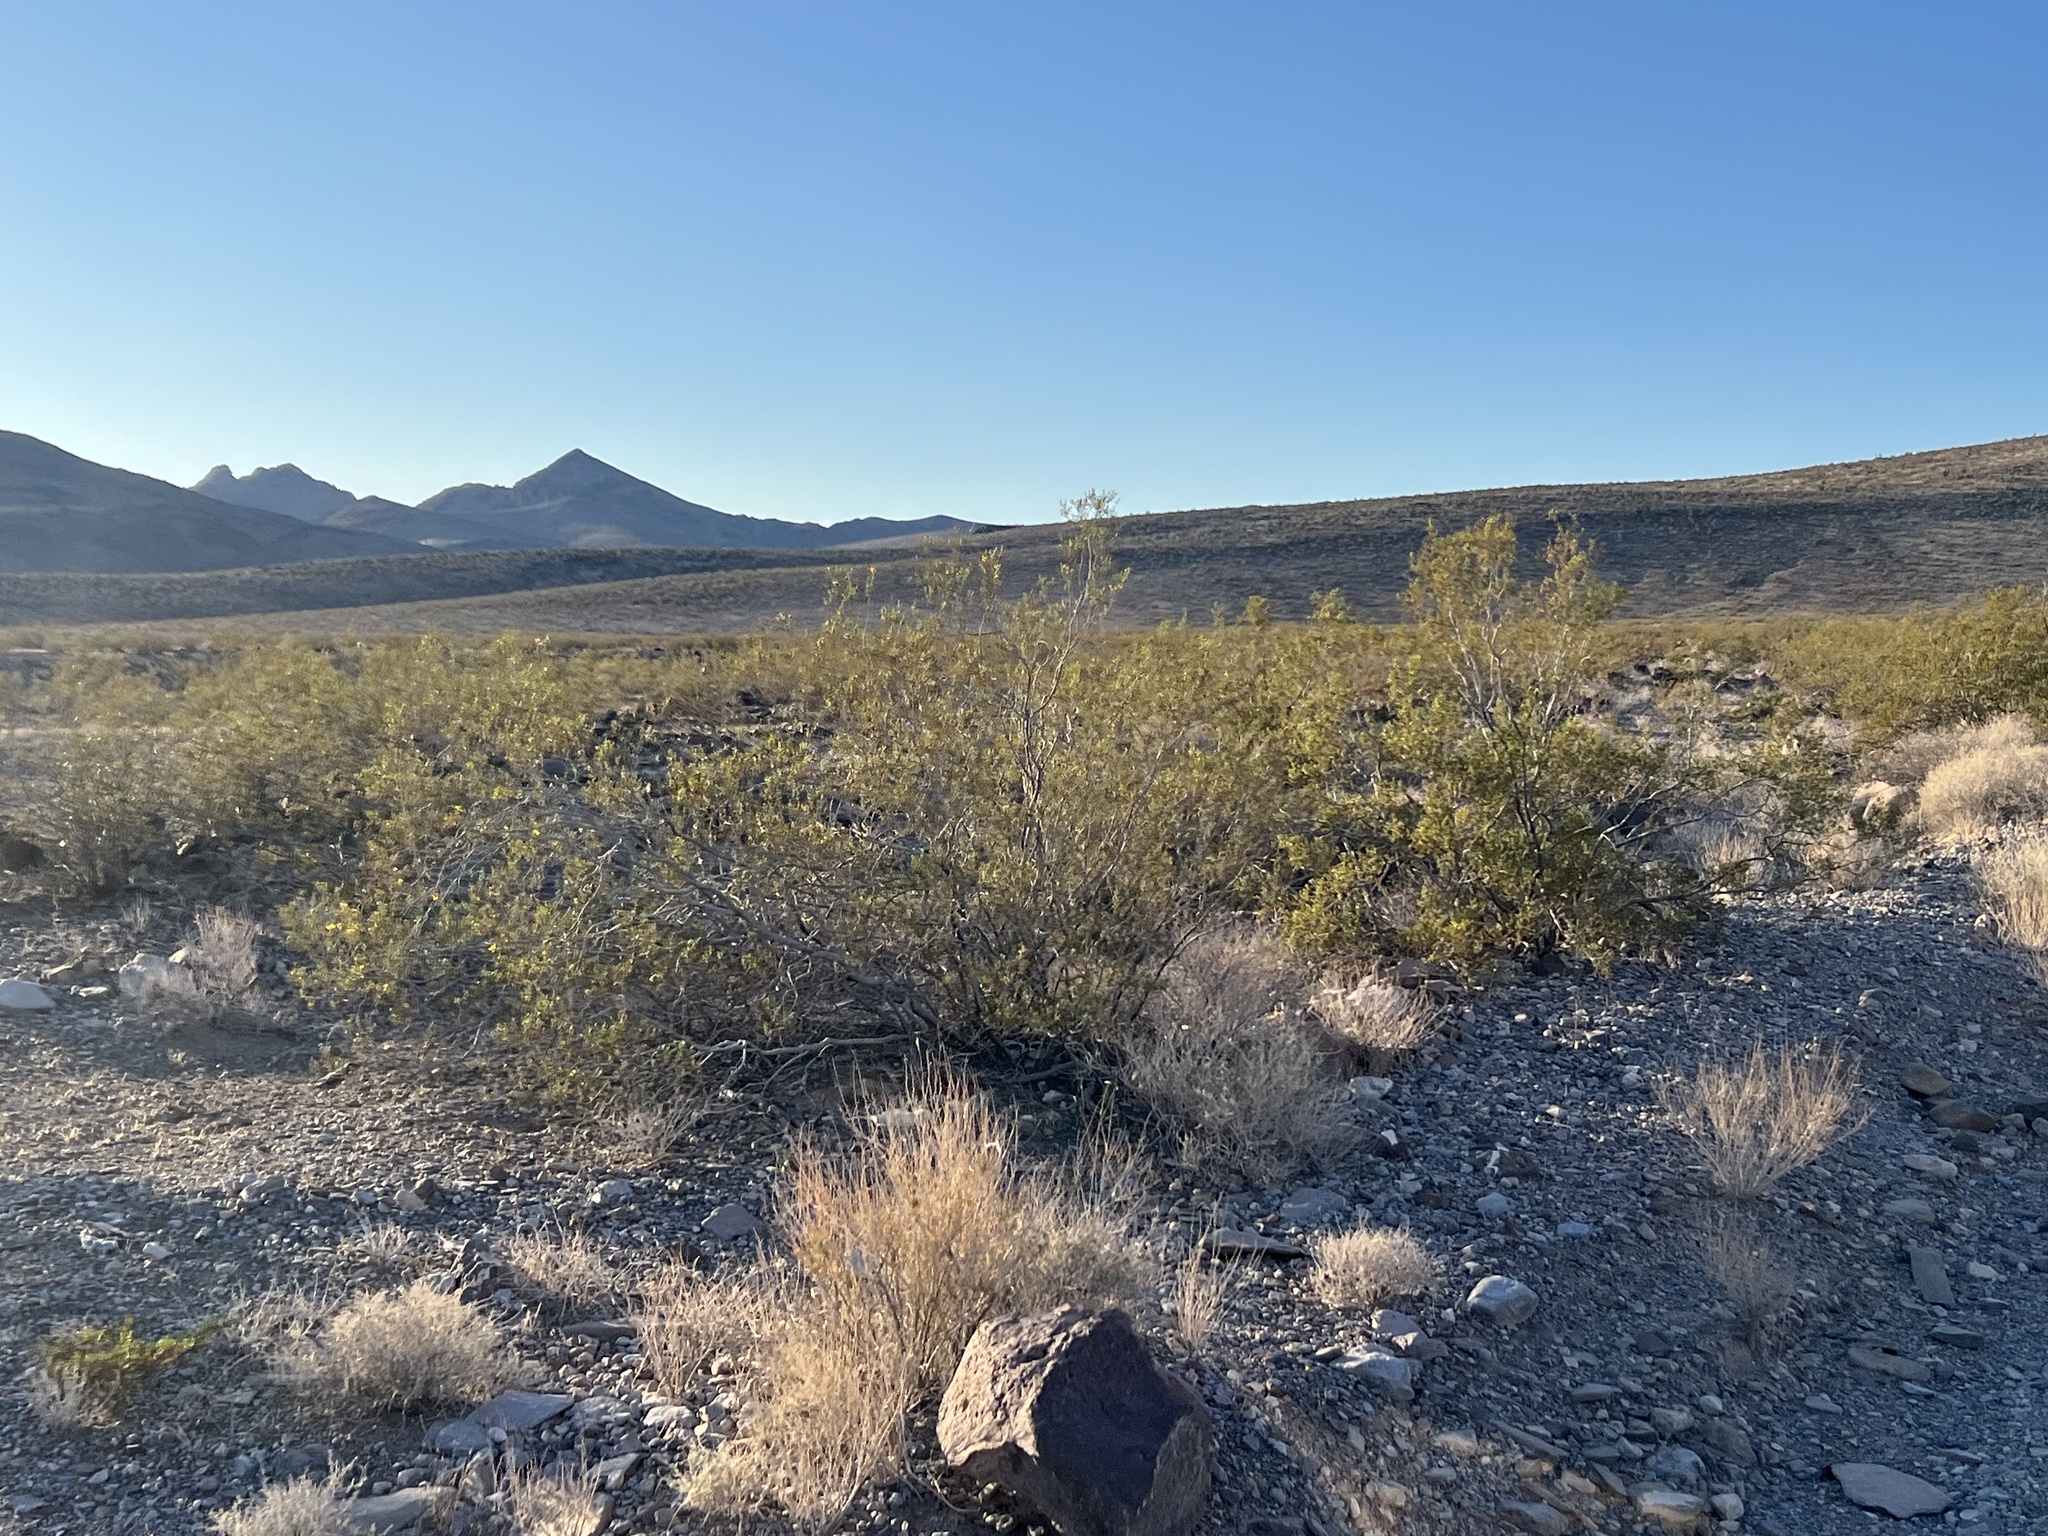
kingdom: Plantae
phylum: Tracheophyta
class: Magnoliopsida
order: Zygophyllales
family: Zygophyllaceae
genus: Larrea
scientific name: Larrea tridentata
